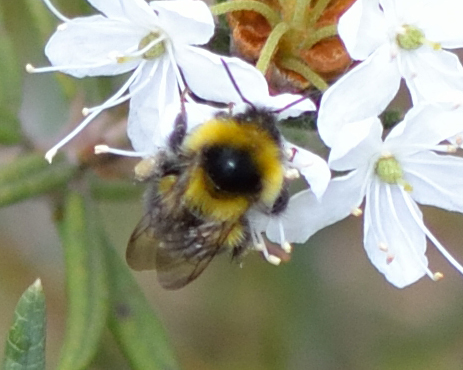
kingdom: Animalia
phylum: Arthropoda
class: Insecta
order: Hymenoptera
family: Apidae
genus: Bombus
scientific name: Bombus jonellus
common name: Heath humble-bee
